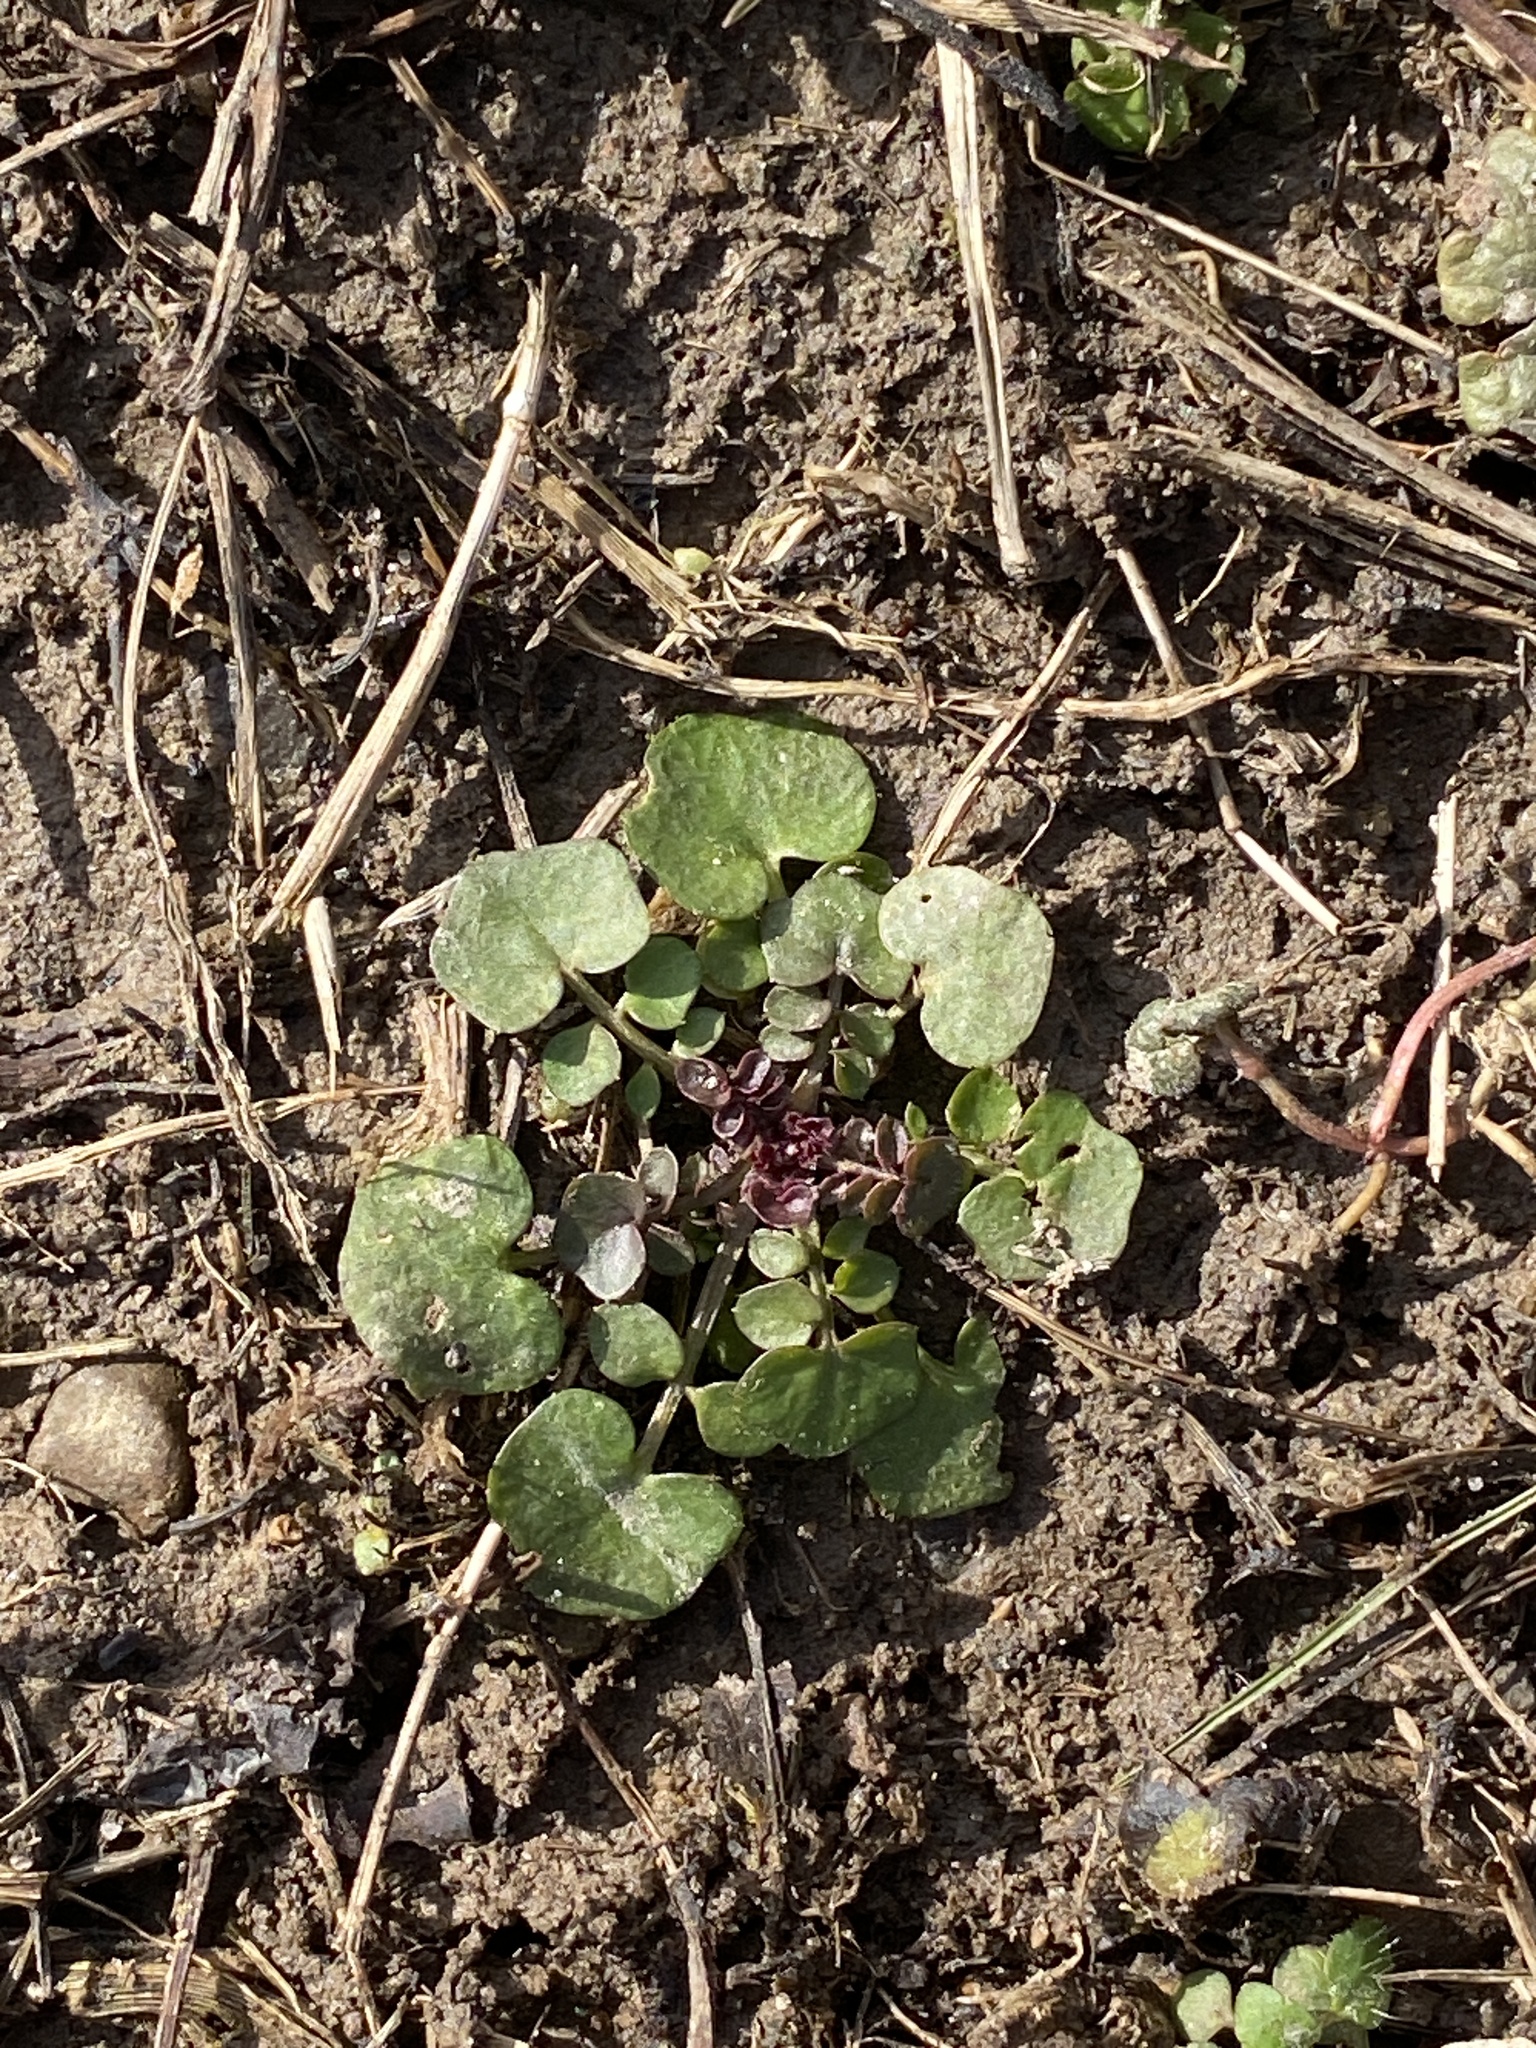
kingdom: Plantae
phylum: Tracheophyta
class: Magnoliopsida
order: Brassicales
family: Brassicaceae
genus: Cardamine
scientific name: Cardamine hirsuta
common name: Hairy bittercress
